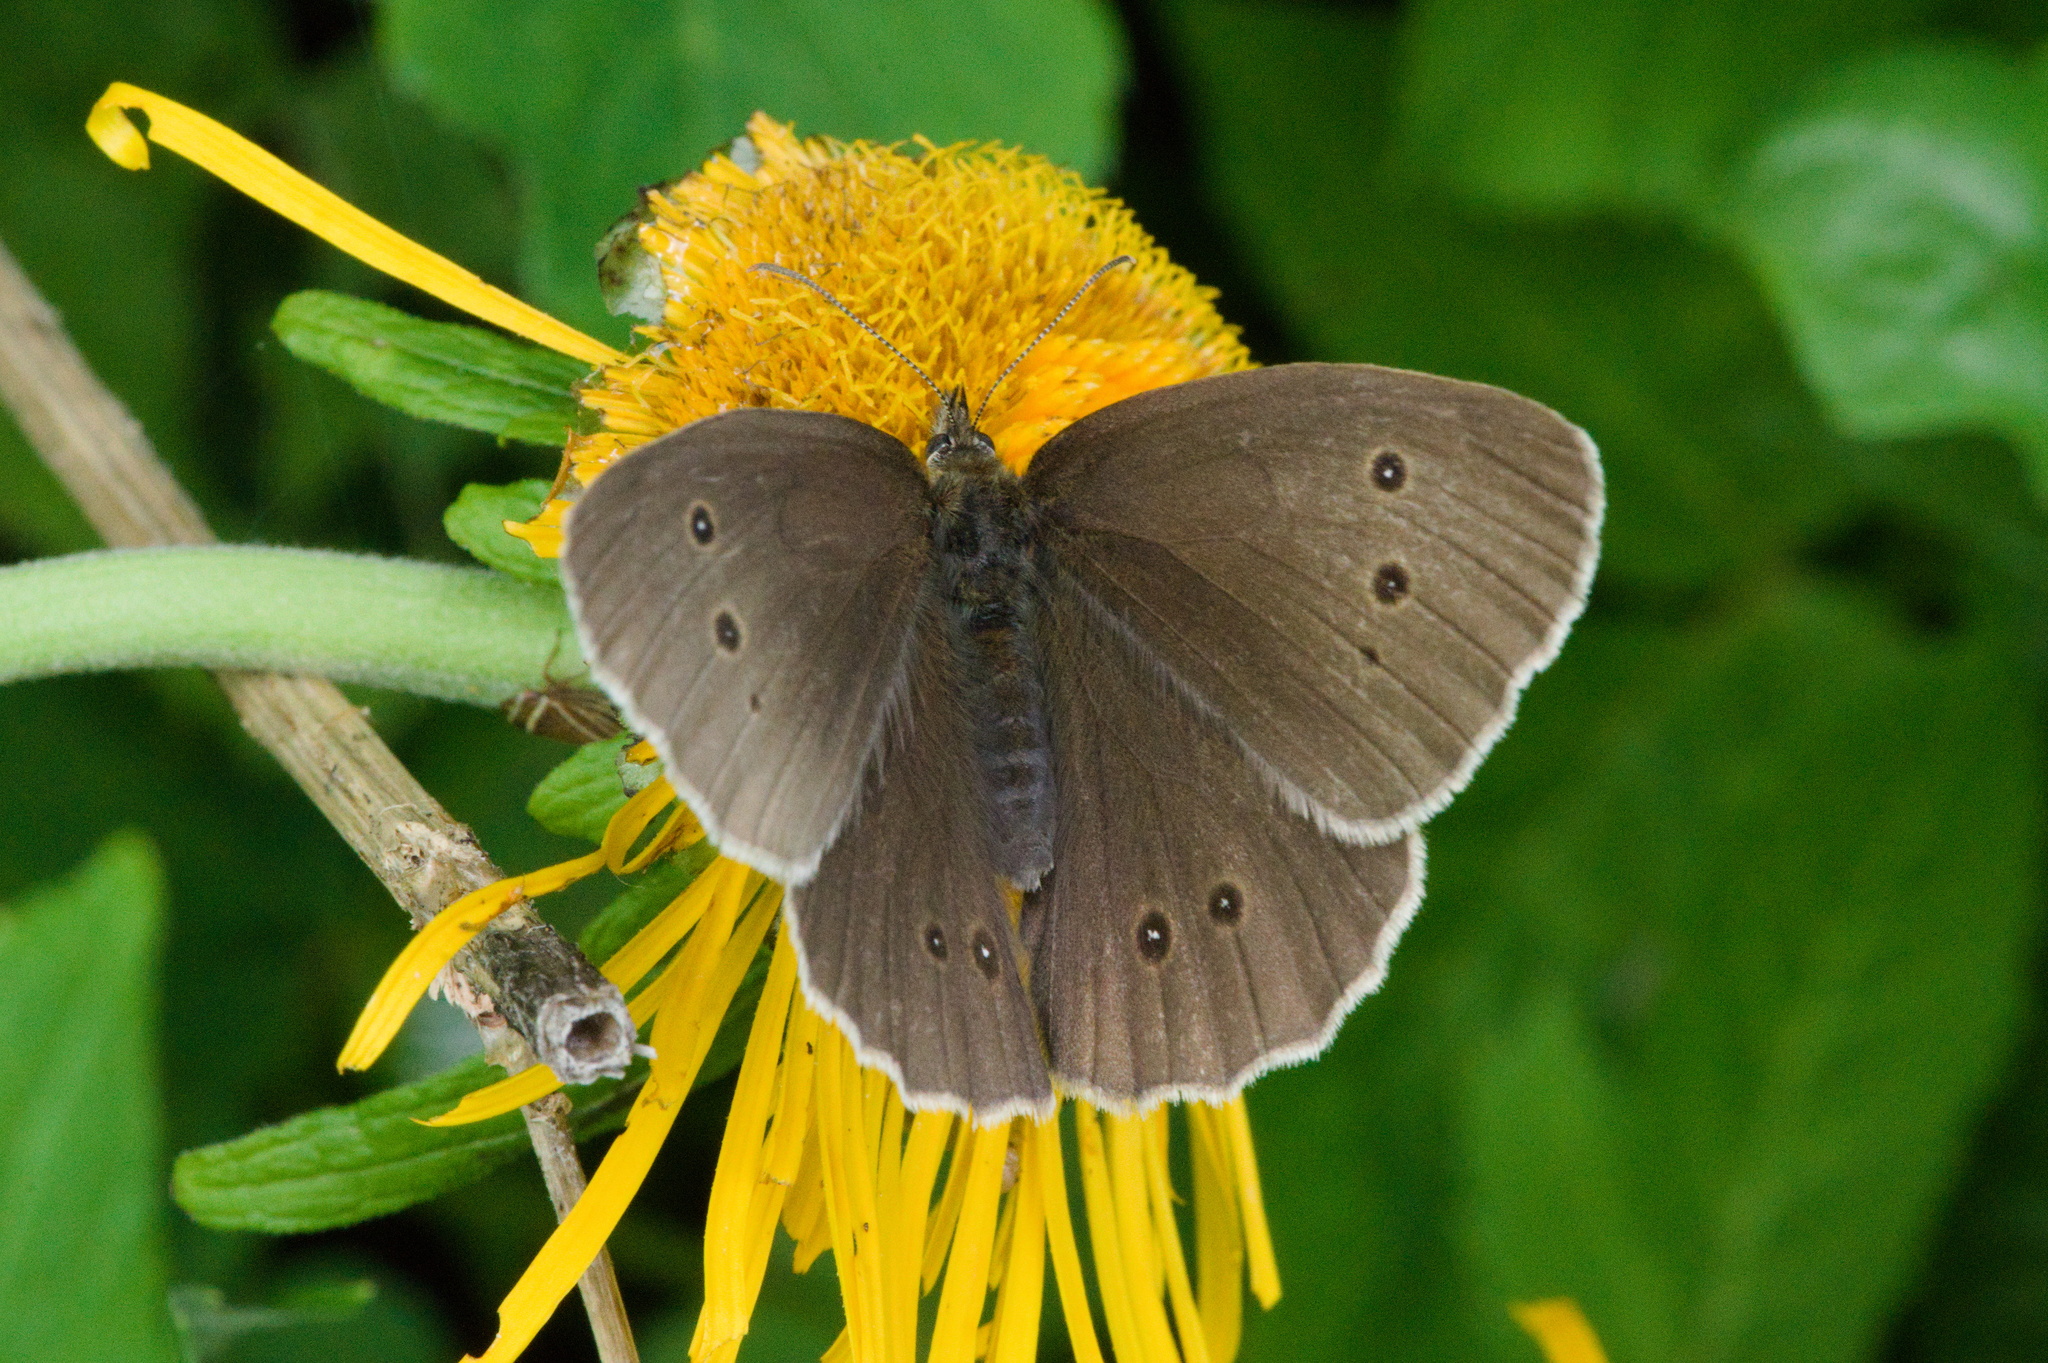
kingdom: Animalia
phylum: Arthropoda
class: Insecta
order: Lepidoptera
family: Nymphalidae
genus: Aphantopus
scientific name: Aphantopus hyperantus
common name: Ringlet
